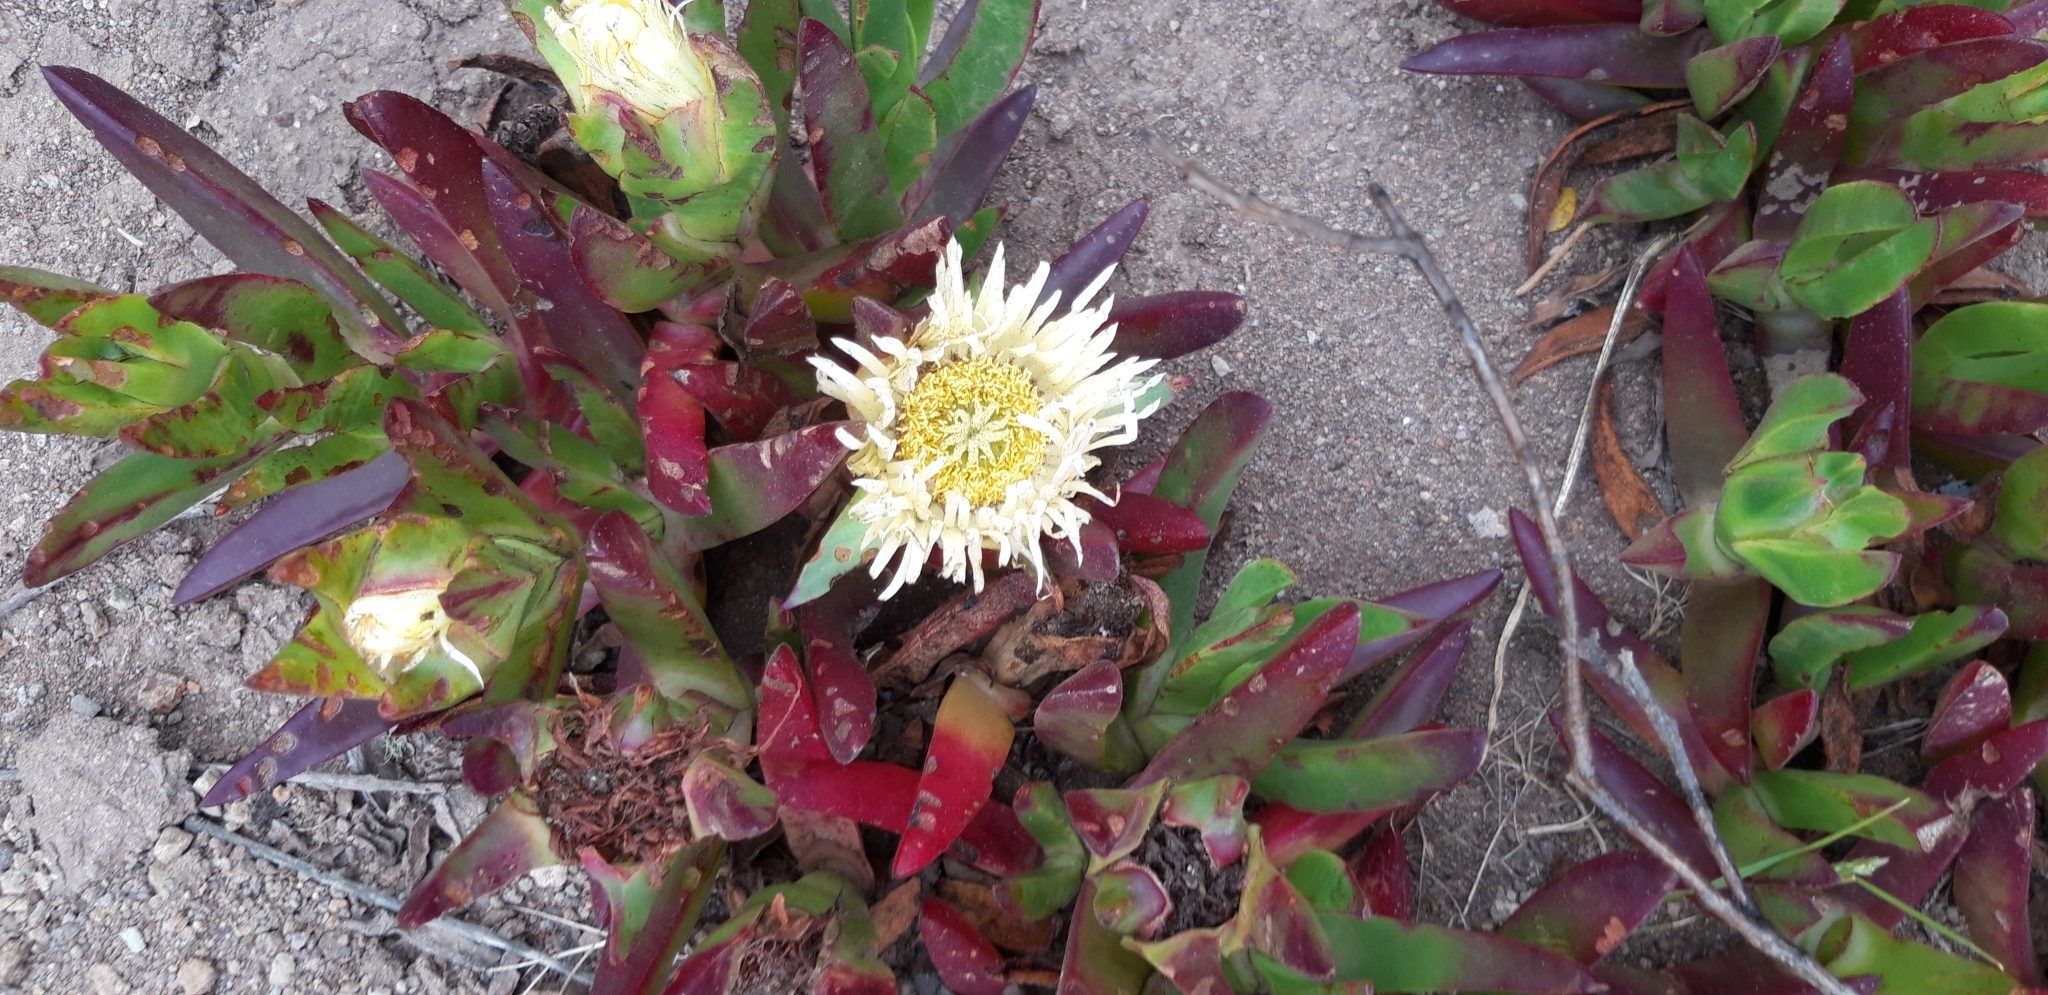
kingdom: Plantae
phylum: Tracheophyta
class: Magnoliopsida
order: Caryophyllales
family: Aizoaceae
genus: Carpobrotus
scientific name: Carpobrotus edulis
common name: Hottentot-fig
